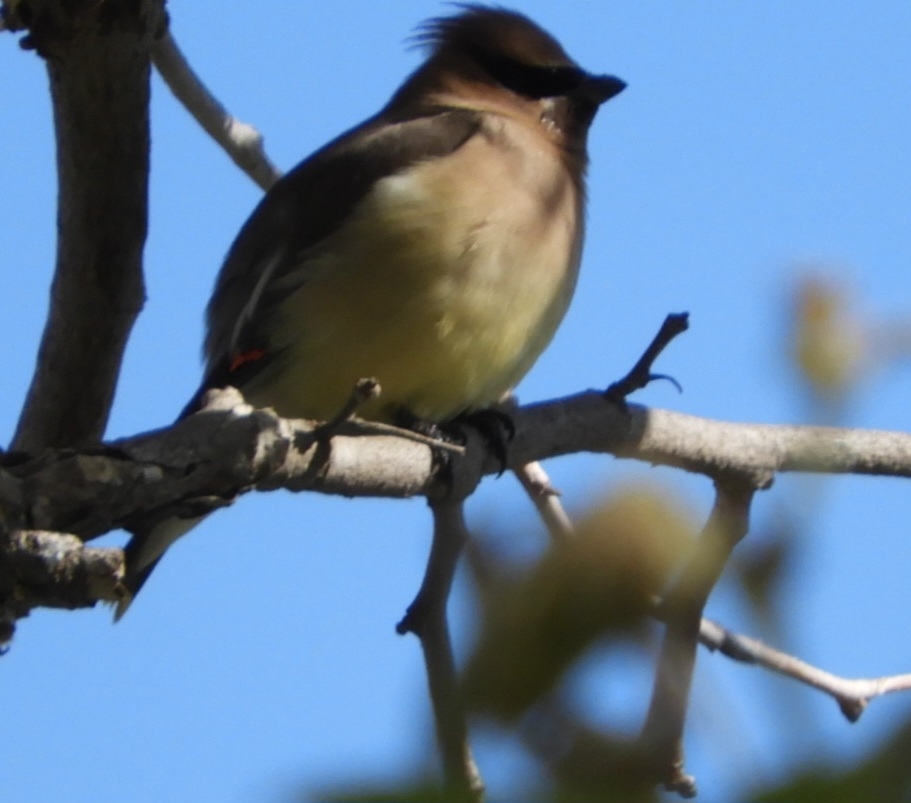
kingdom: Animalia
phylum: Chordata
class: Aves
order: Passeriformes
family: Bombycillidae
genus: Bombycilla
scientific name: Bombycilla cedrorum
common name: Cedar waxwing
